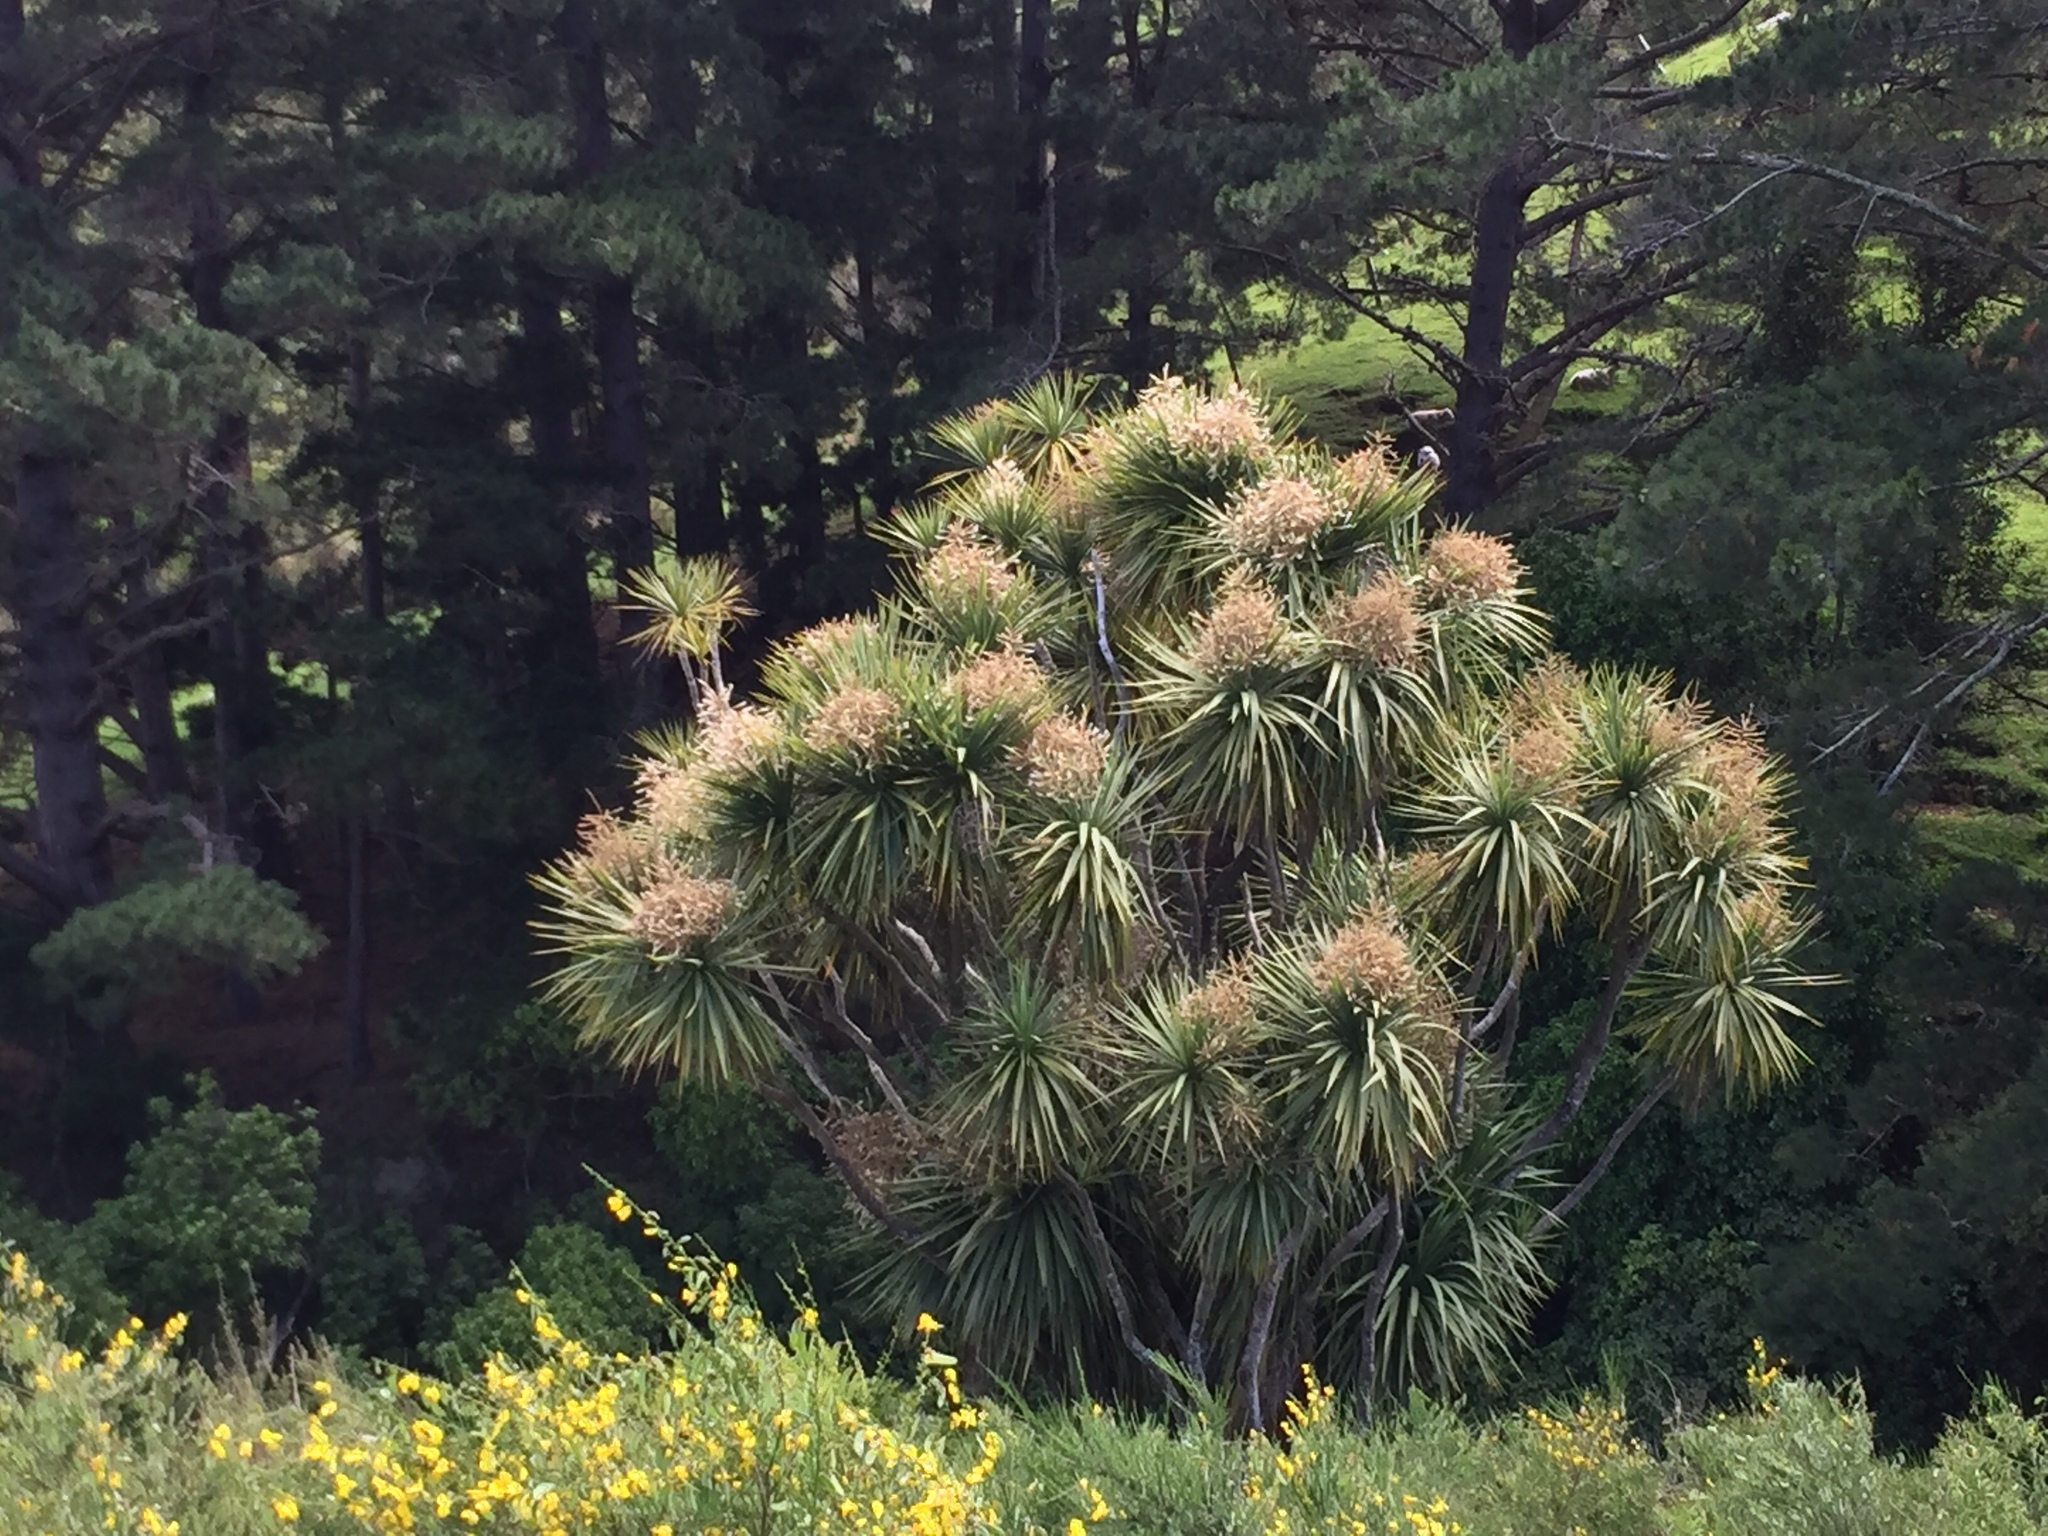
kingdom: Plantae
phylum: Tracheophyta
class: Liliopsida
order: Asparagales
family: Asparagaceae
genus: Cordyline
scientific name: Cordyline australis
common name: Cabbage-palm
